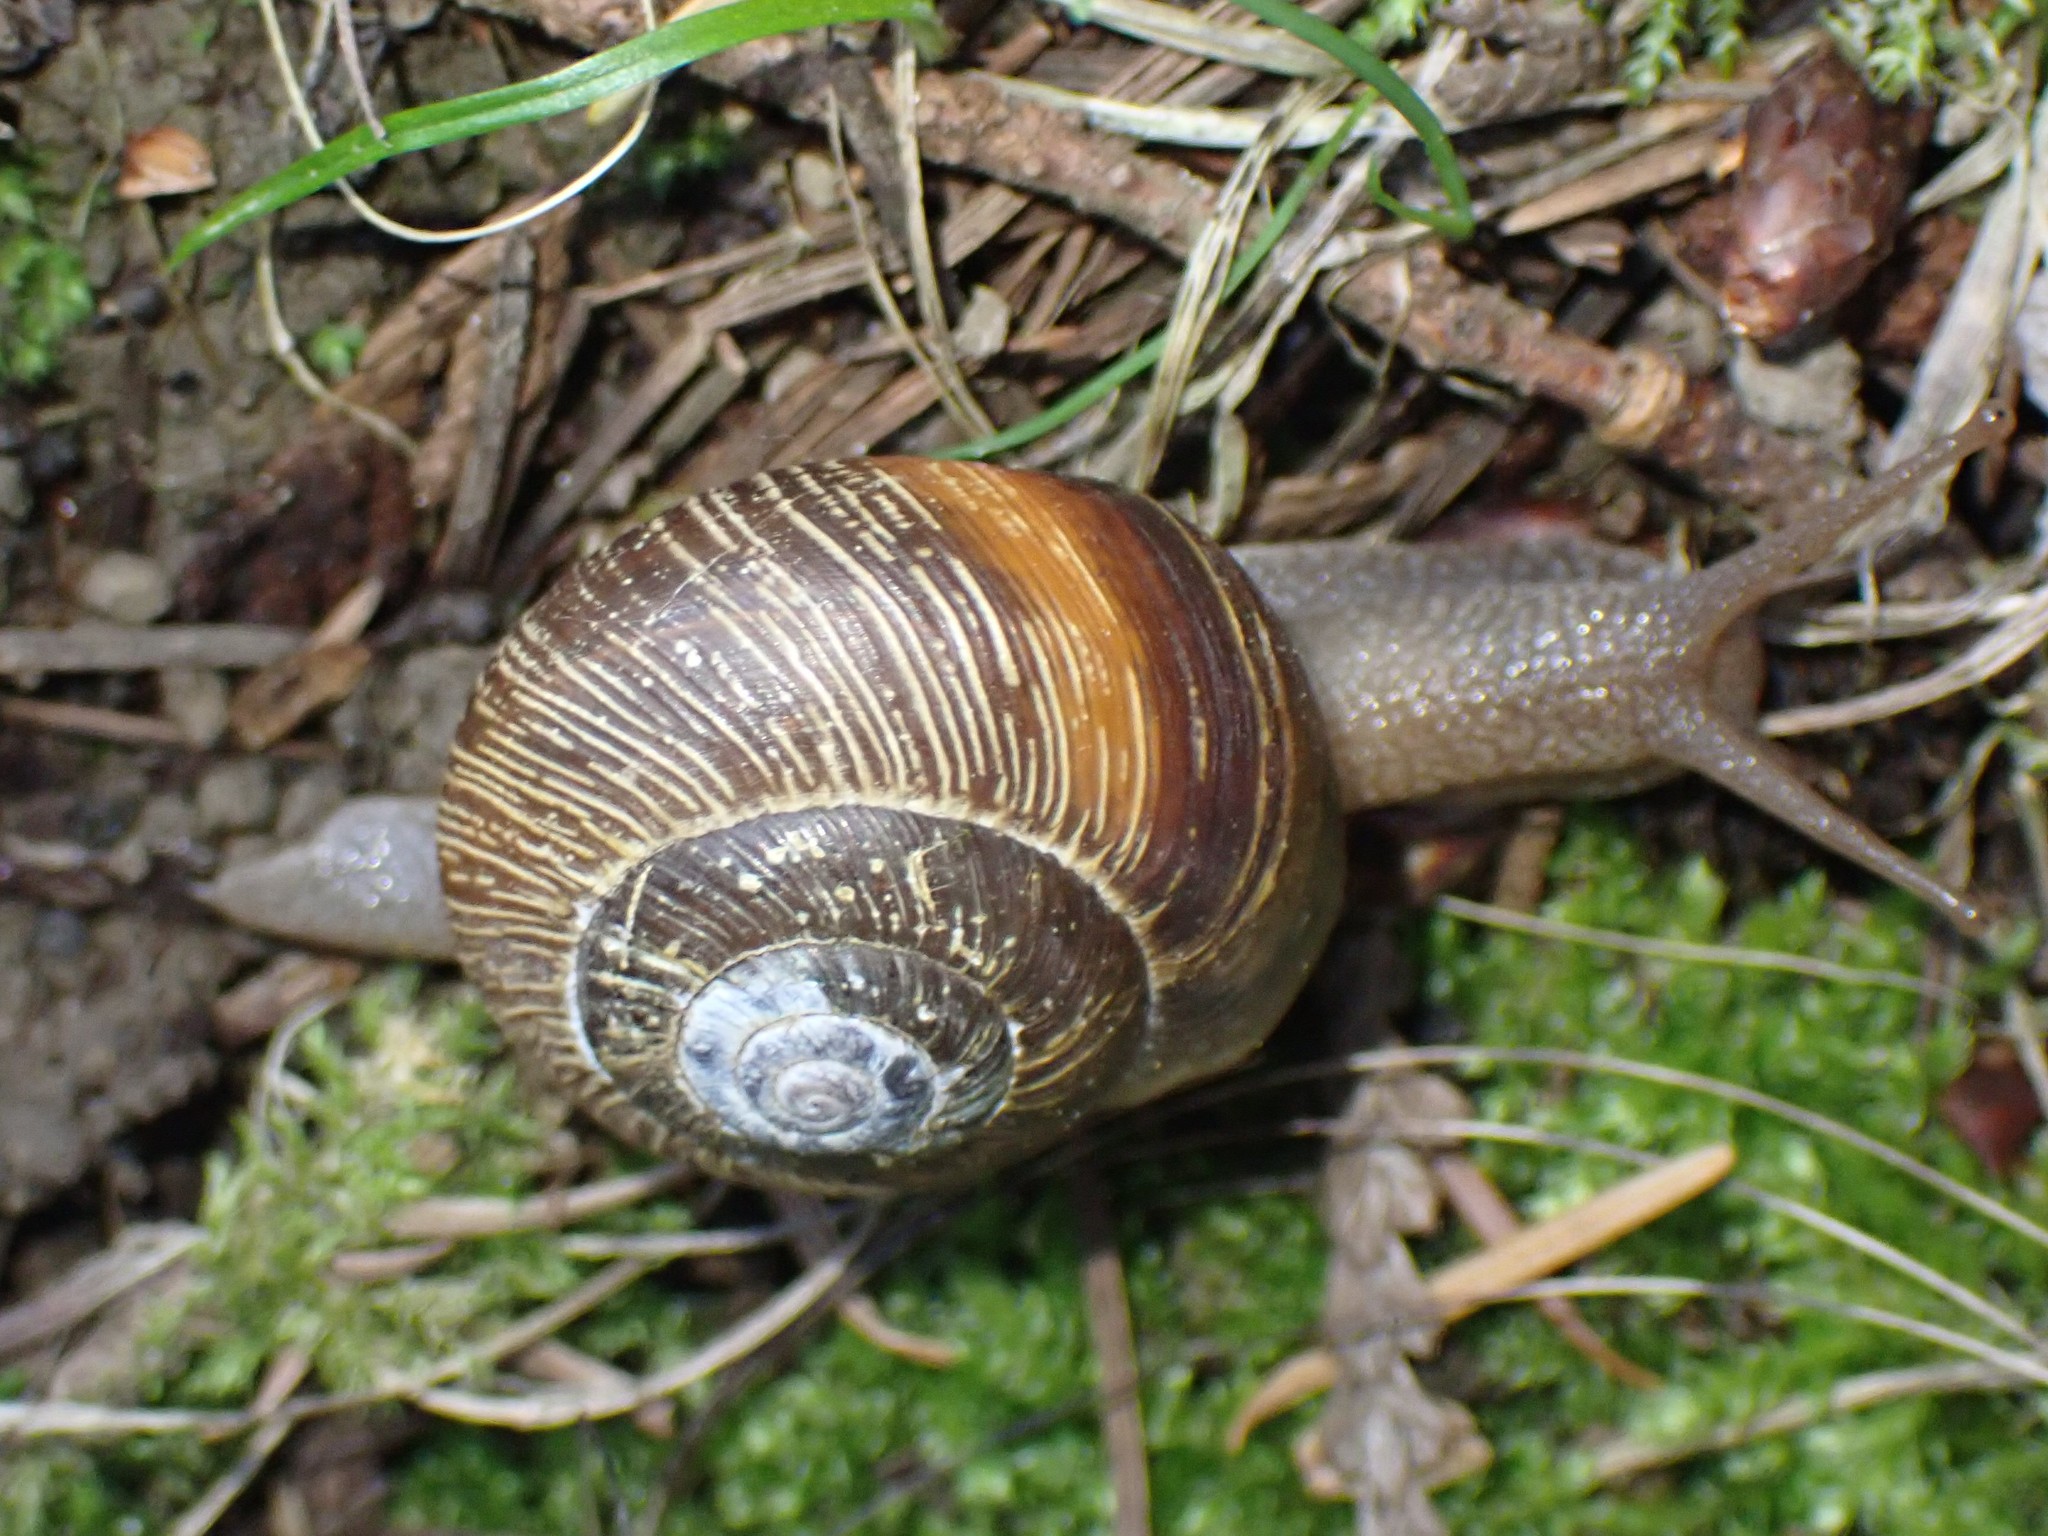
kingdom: Animalia
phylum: Mollusca
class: Gastropoda
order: Stylommatophora
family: Polygyridae
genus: Allogona
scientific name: Allogona townsendiana
